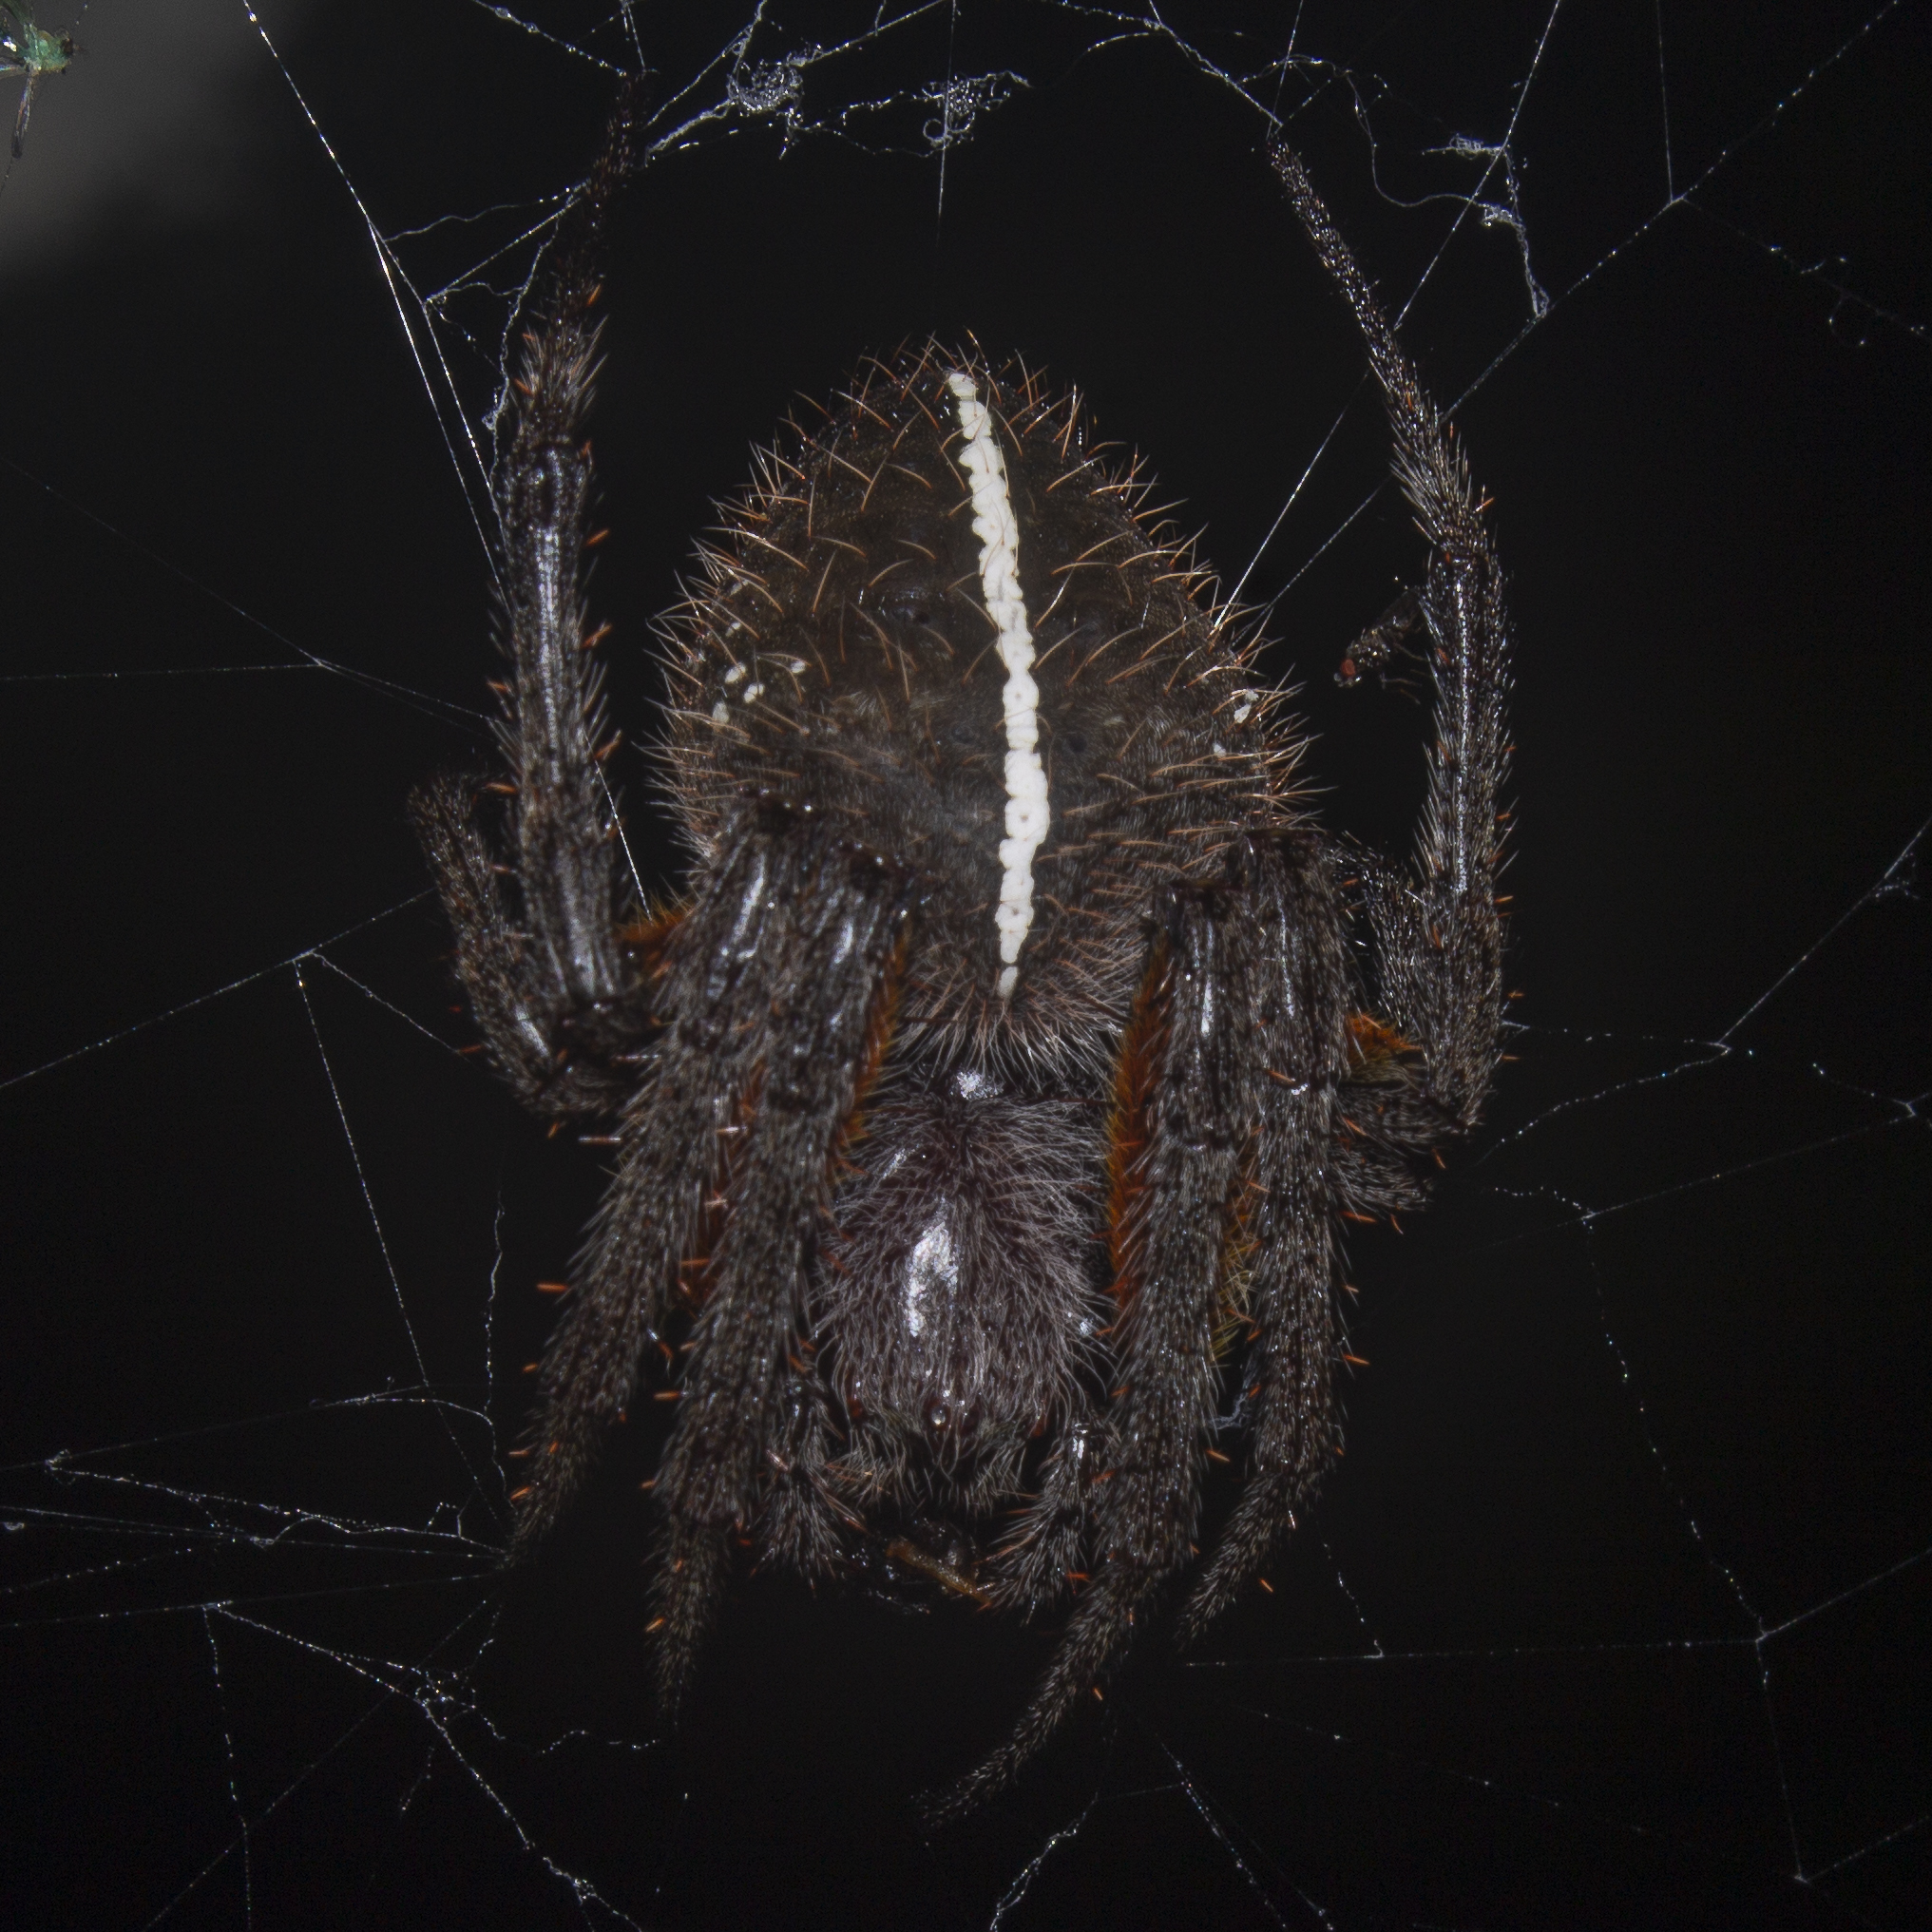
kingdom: Animalia
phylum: Arthropoda
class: Arachnida
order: Araneae
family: Araneidae
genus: Eriophora
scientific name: Eriophora fuliginea
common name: Orb weavers
